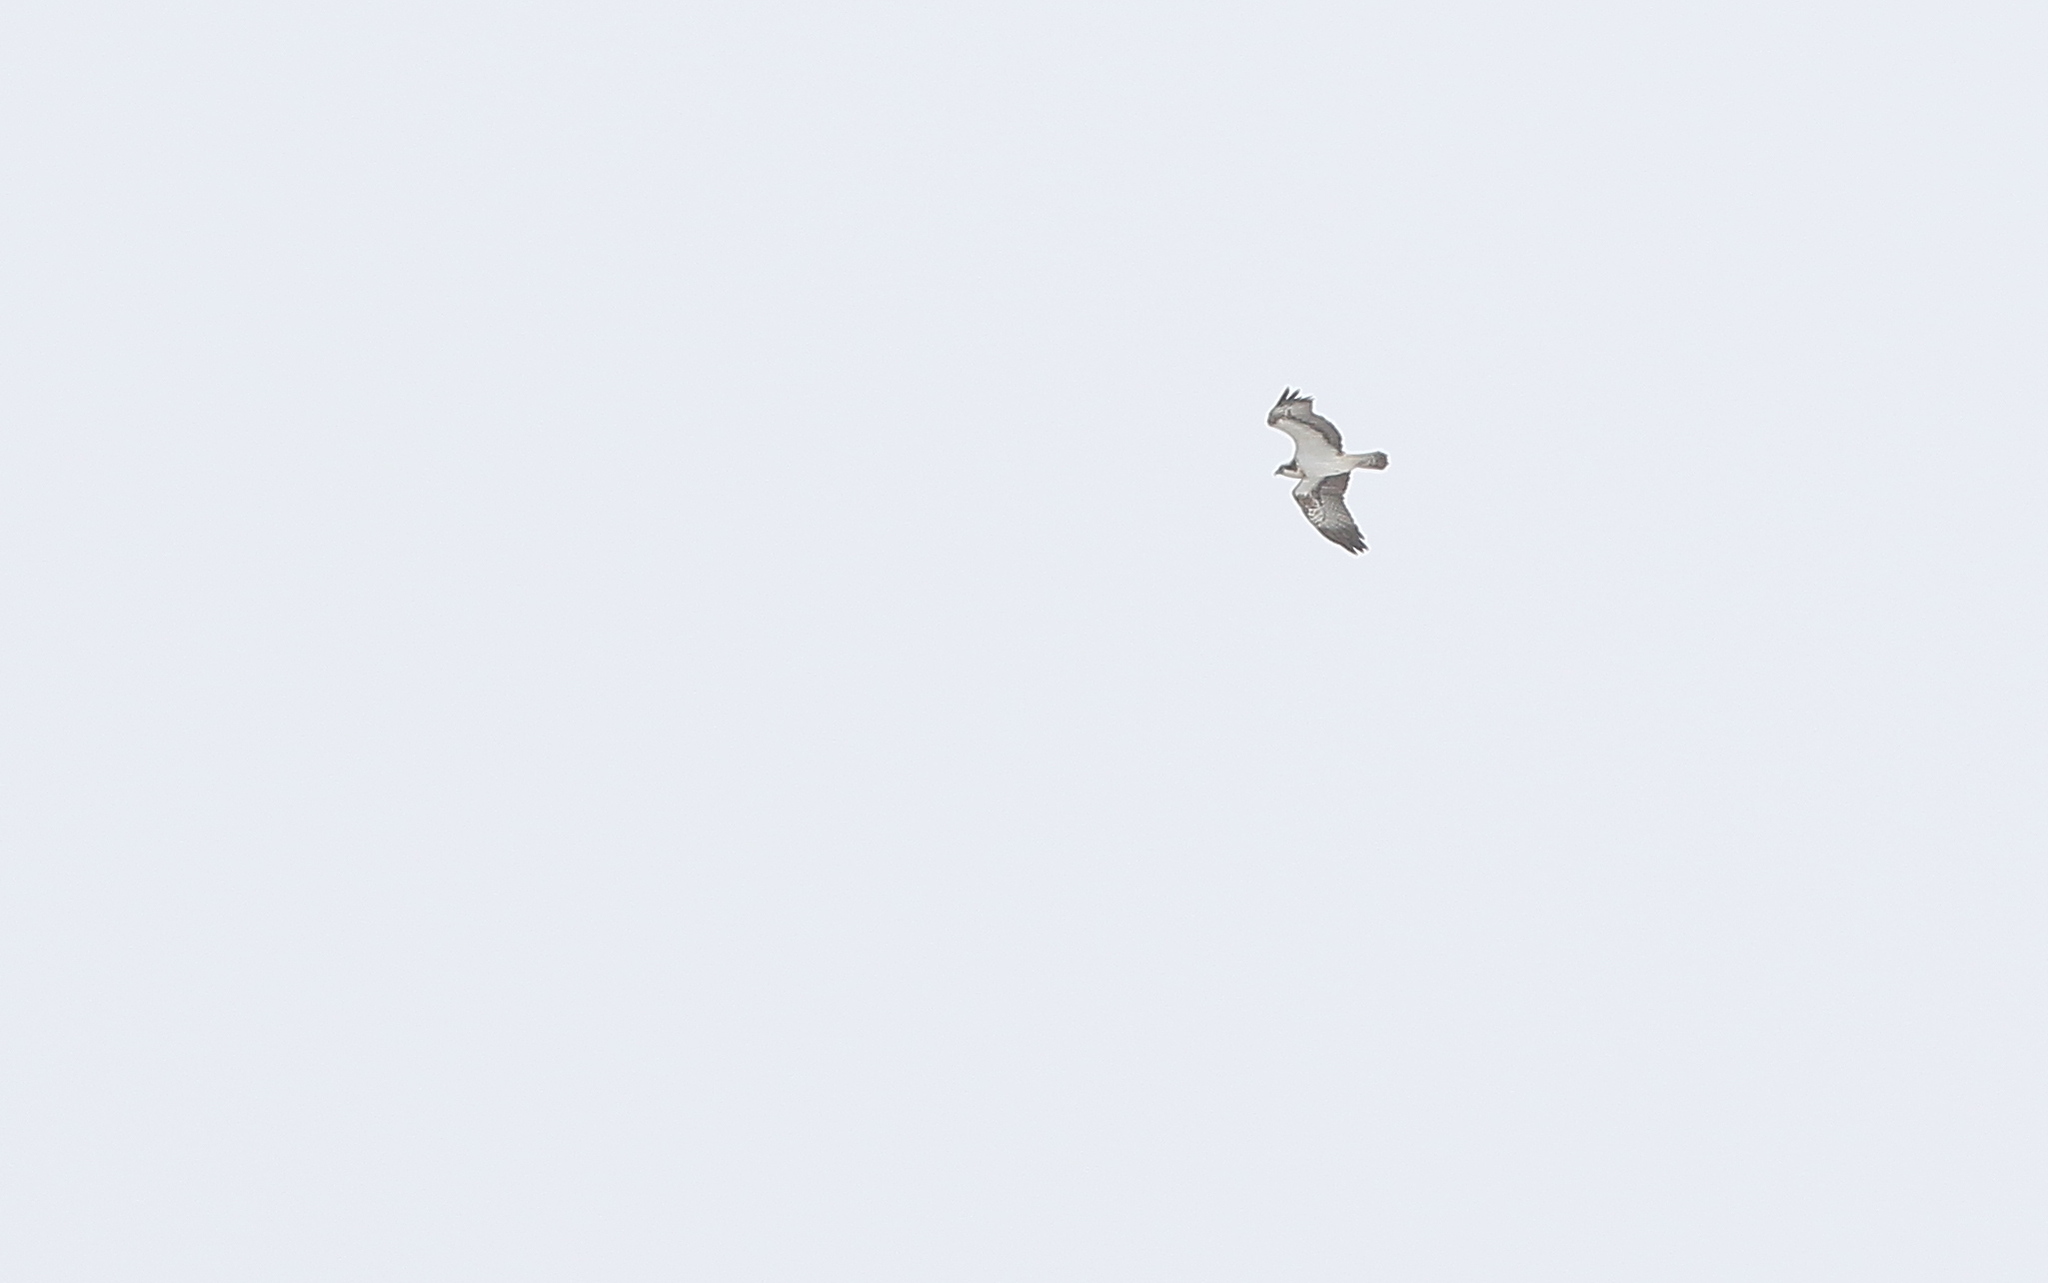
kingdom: Animalia
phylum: Chordata
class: Aves
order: Accipitriformes
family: Pandionidae
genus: Pandion
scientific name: Pandion haliaetus
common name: Osprey
